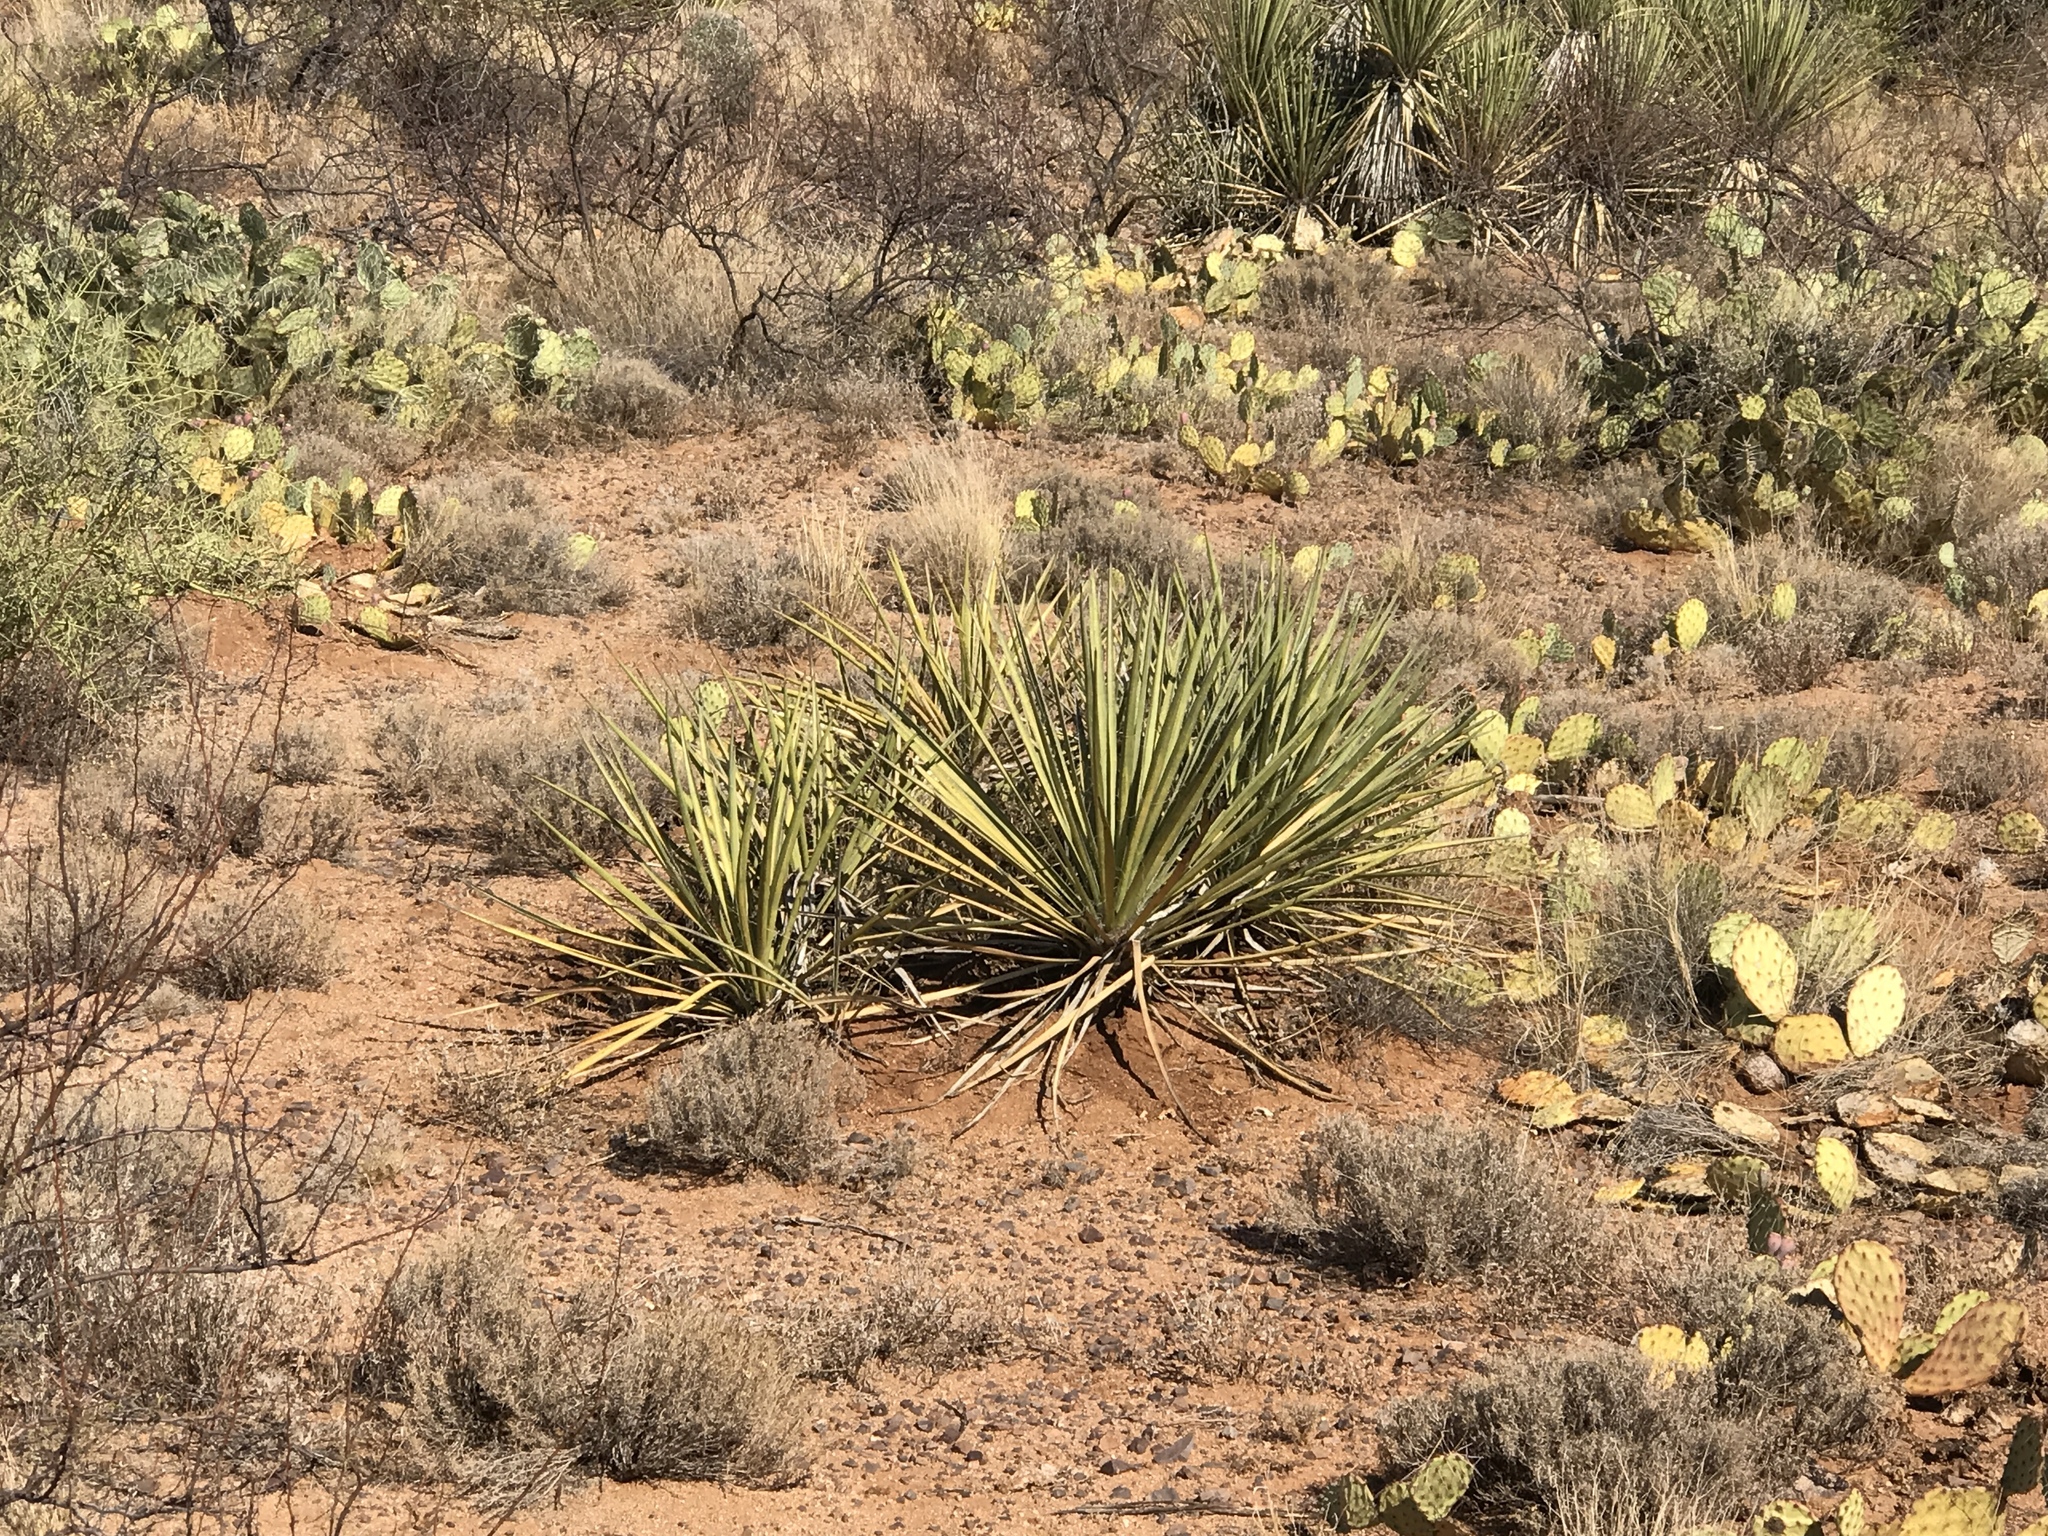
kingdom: Plantae
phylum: Tracheophyta
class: Liliopsida
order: Asparagales
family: Asparagaceae
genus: Yucca
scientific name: Yucca baccata
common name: Banana yucca
